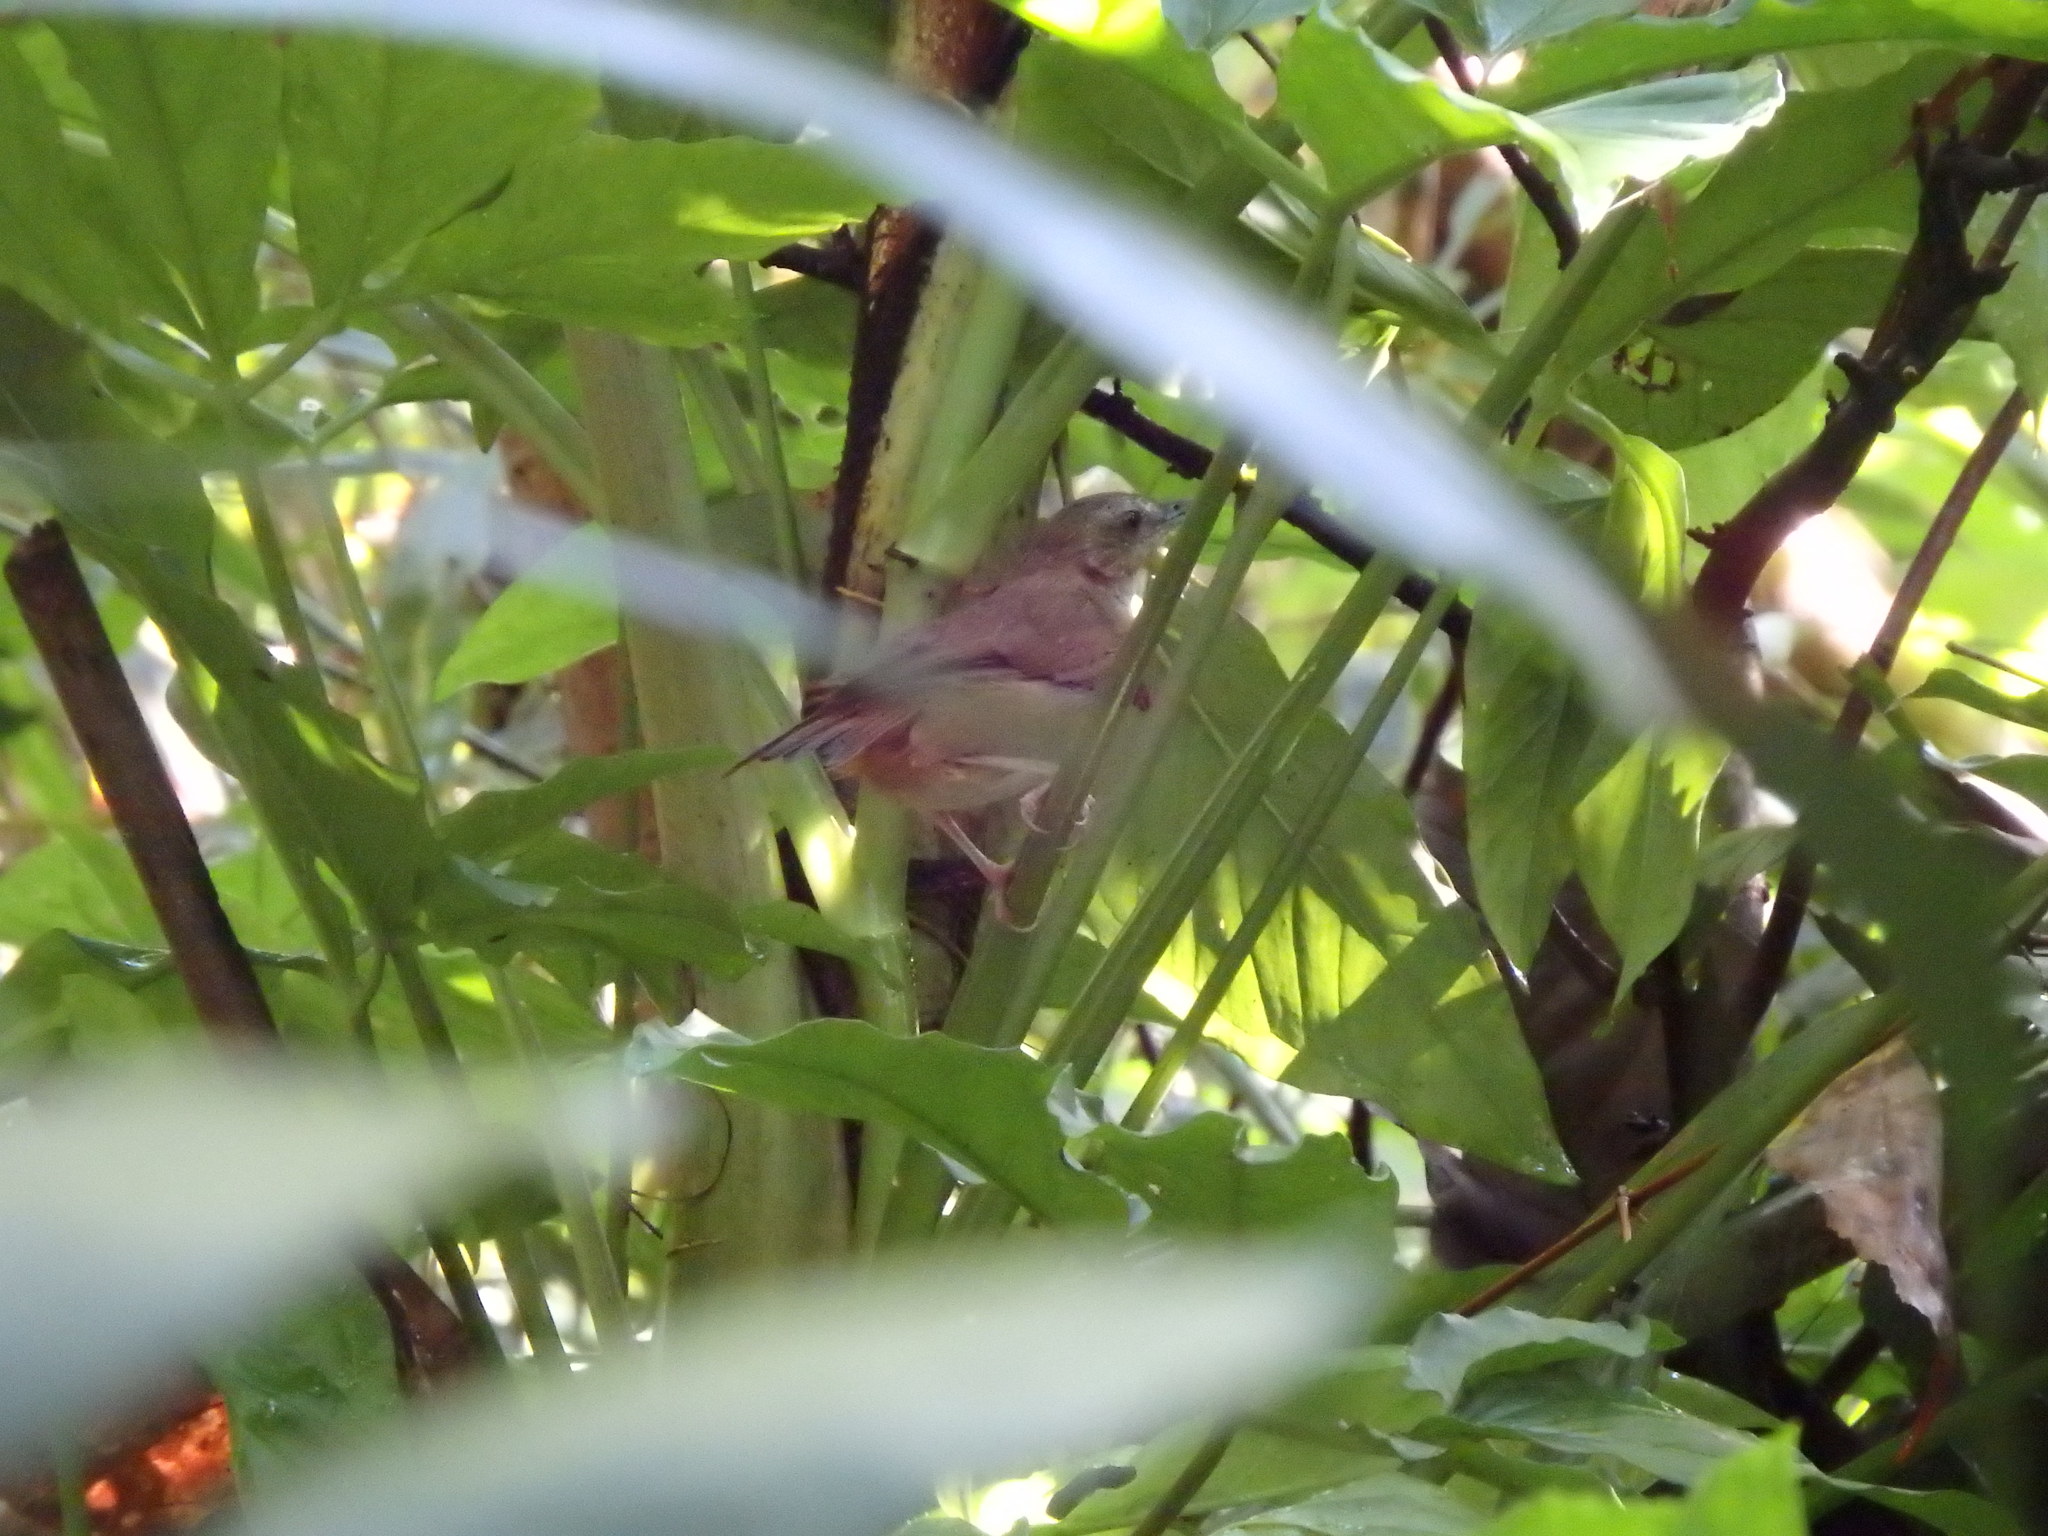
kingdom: Animalia
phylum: Chordata
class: Aves
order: Passeriformes
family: Pellorneidae
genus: Malacocincla
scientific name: Malacocincla abbotti
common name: Abbott's babbler
